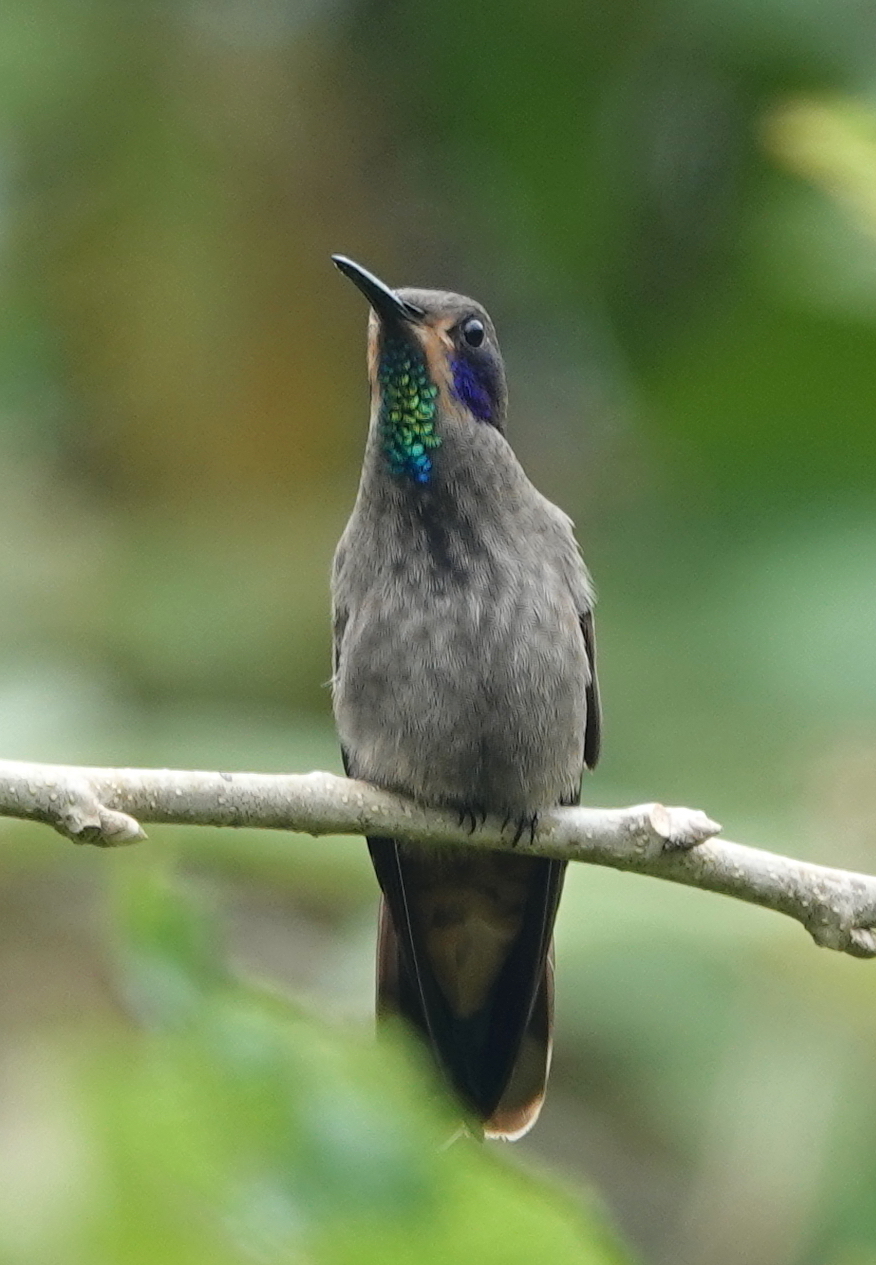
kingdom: Animalia
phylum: Chordata
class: Aves
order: Apodiformes
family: Trochilidae
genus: Colibri
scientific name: Colibri delphinae
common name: Brown violetear
